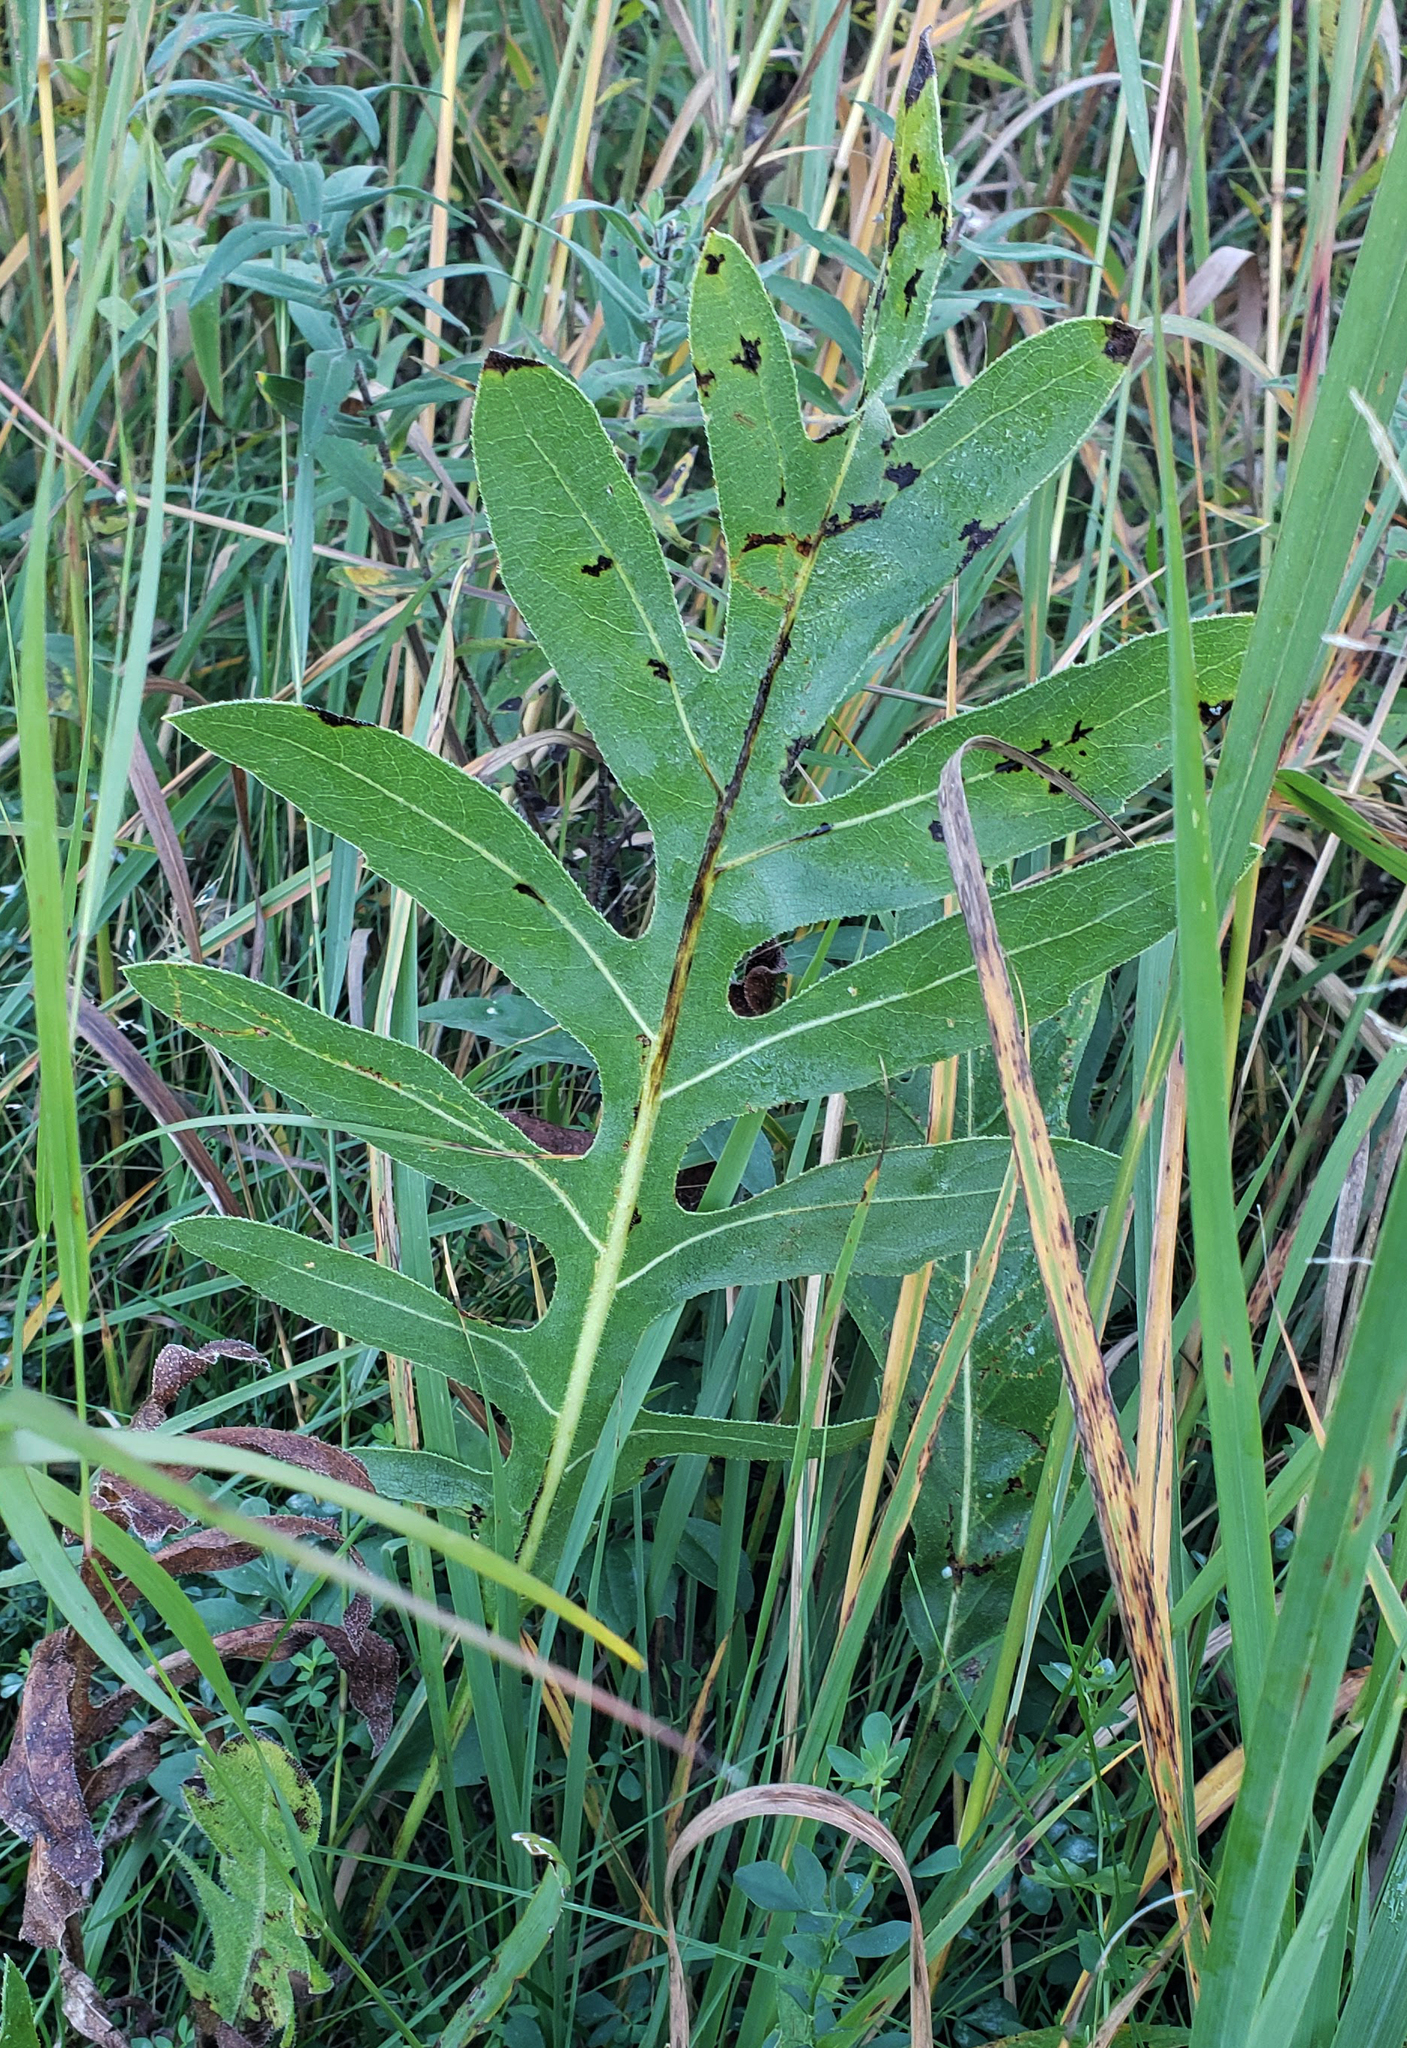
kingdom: Plantae
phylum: Tracheophyta
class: Magnoliopsida
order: Asterales
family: Asteraceae
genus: Silphium
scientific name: Silphium laciniatum
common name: Polarplant
